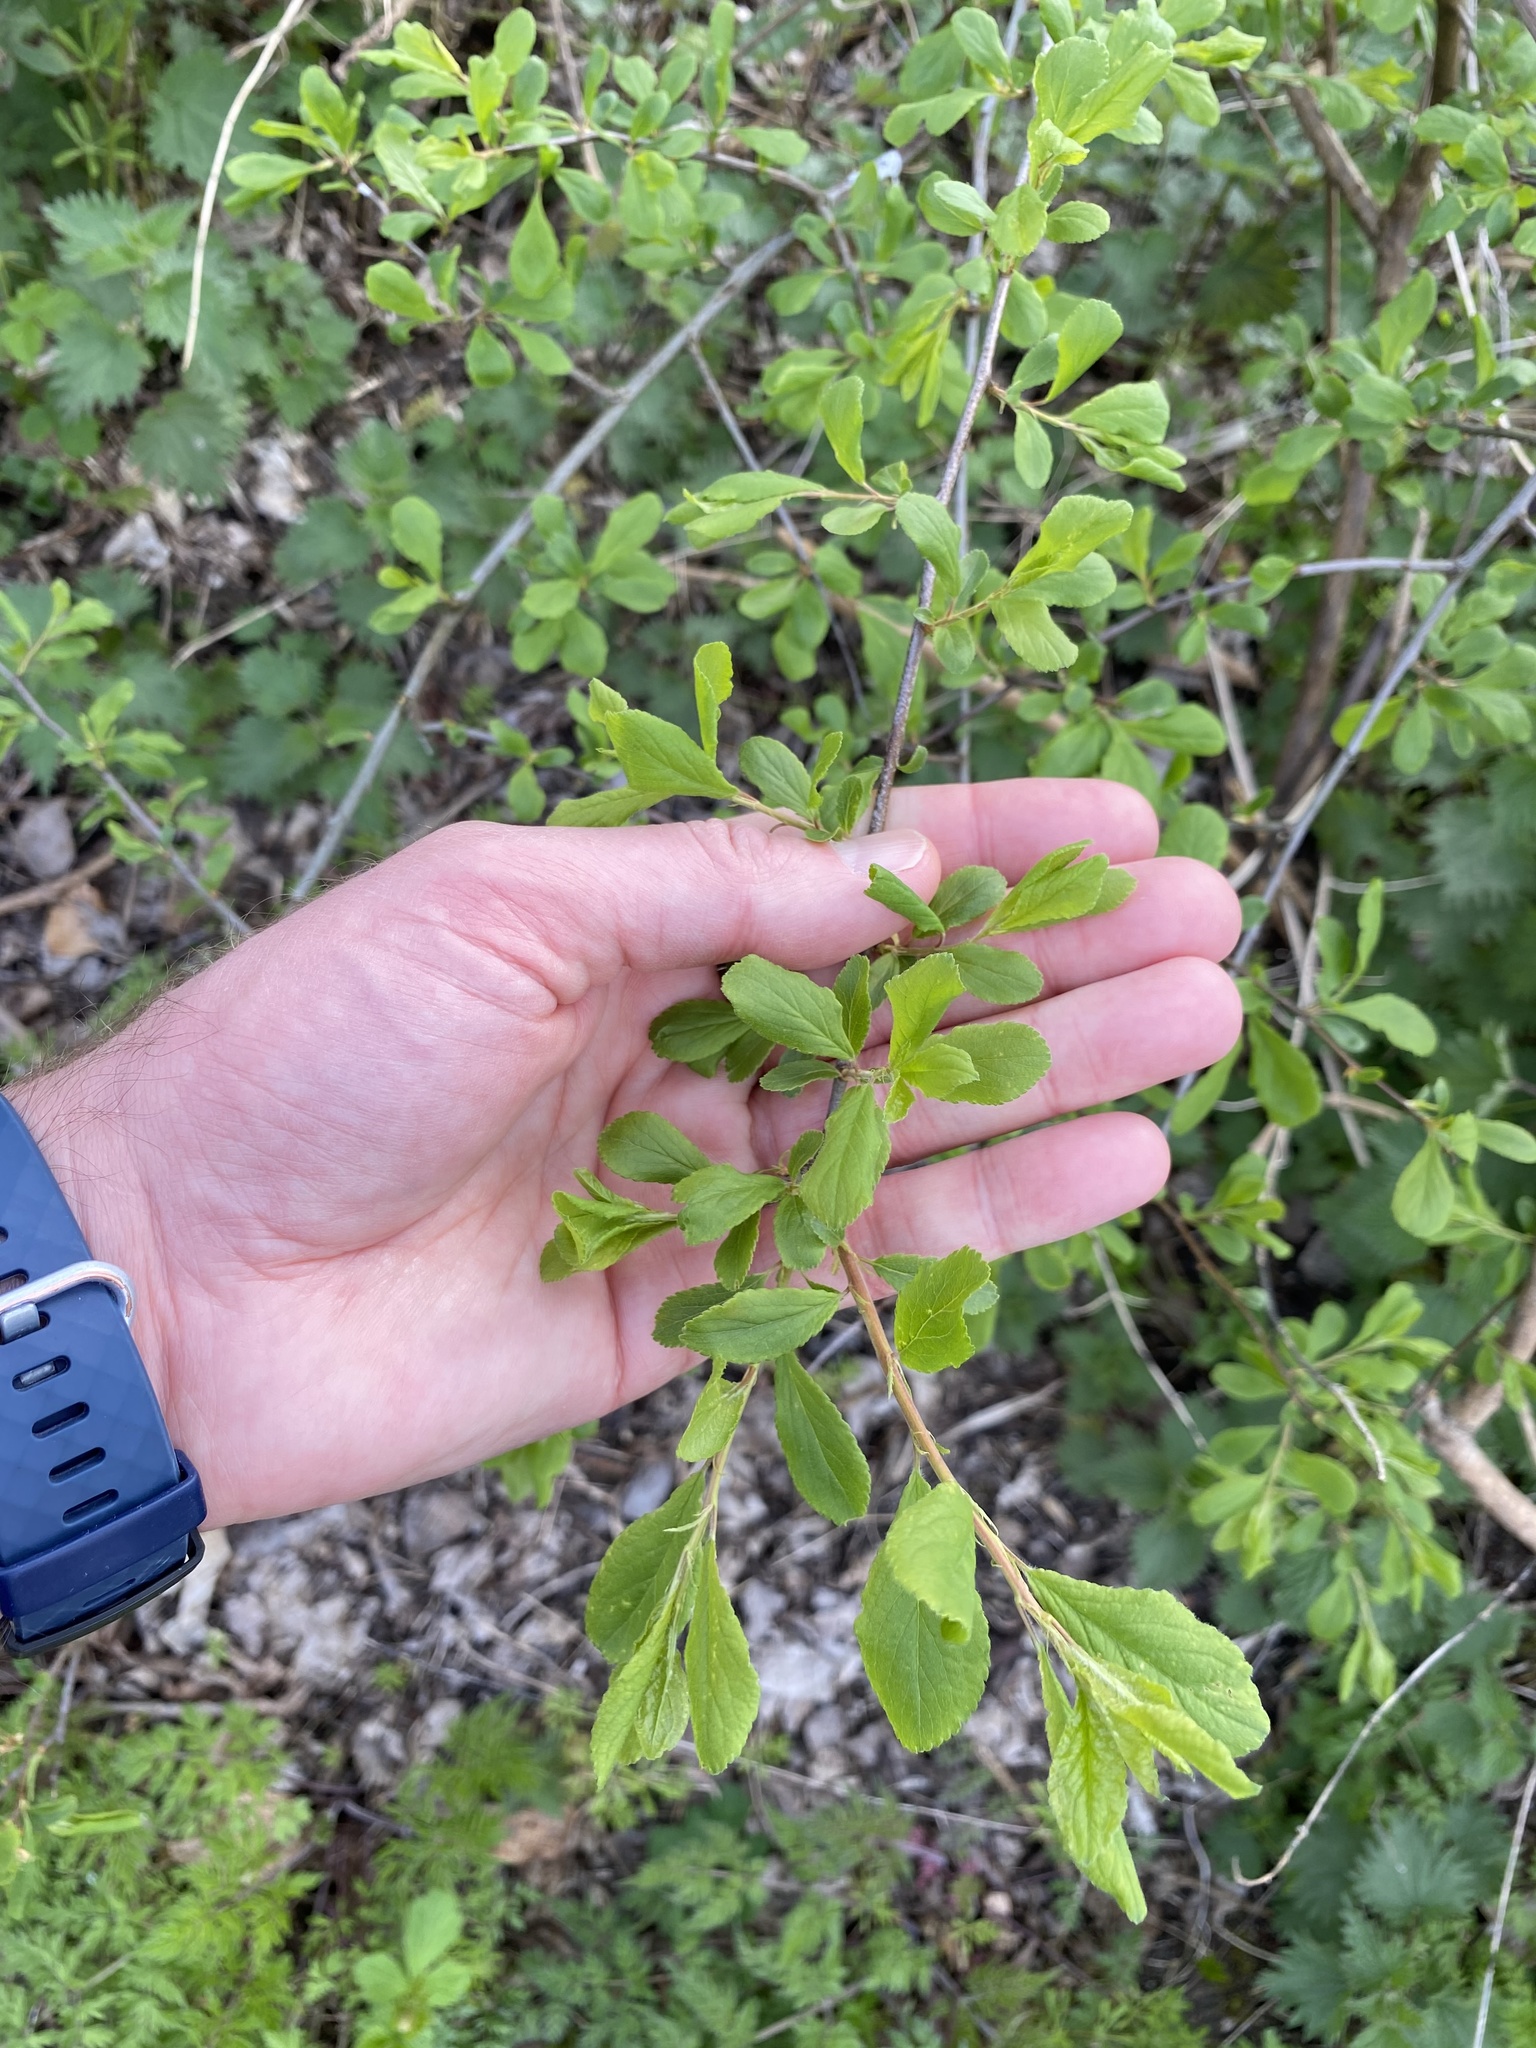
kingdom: Plantae
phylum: Tracheophyta
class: Magnoliopsida
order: Rosales
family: Rosaceae
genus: Prunus
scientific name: Prunus spinosa
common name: Blackthorn
